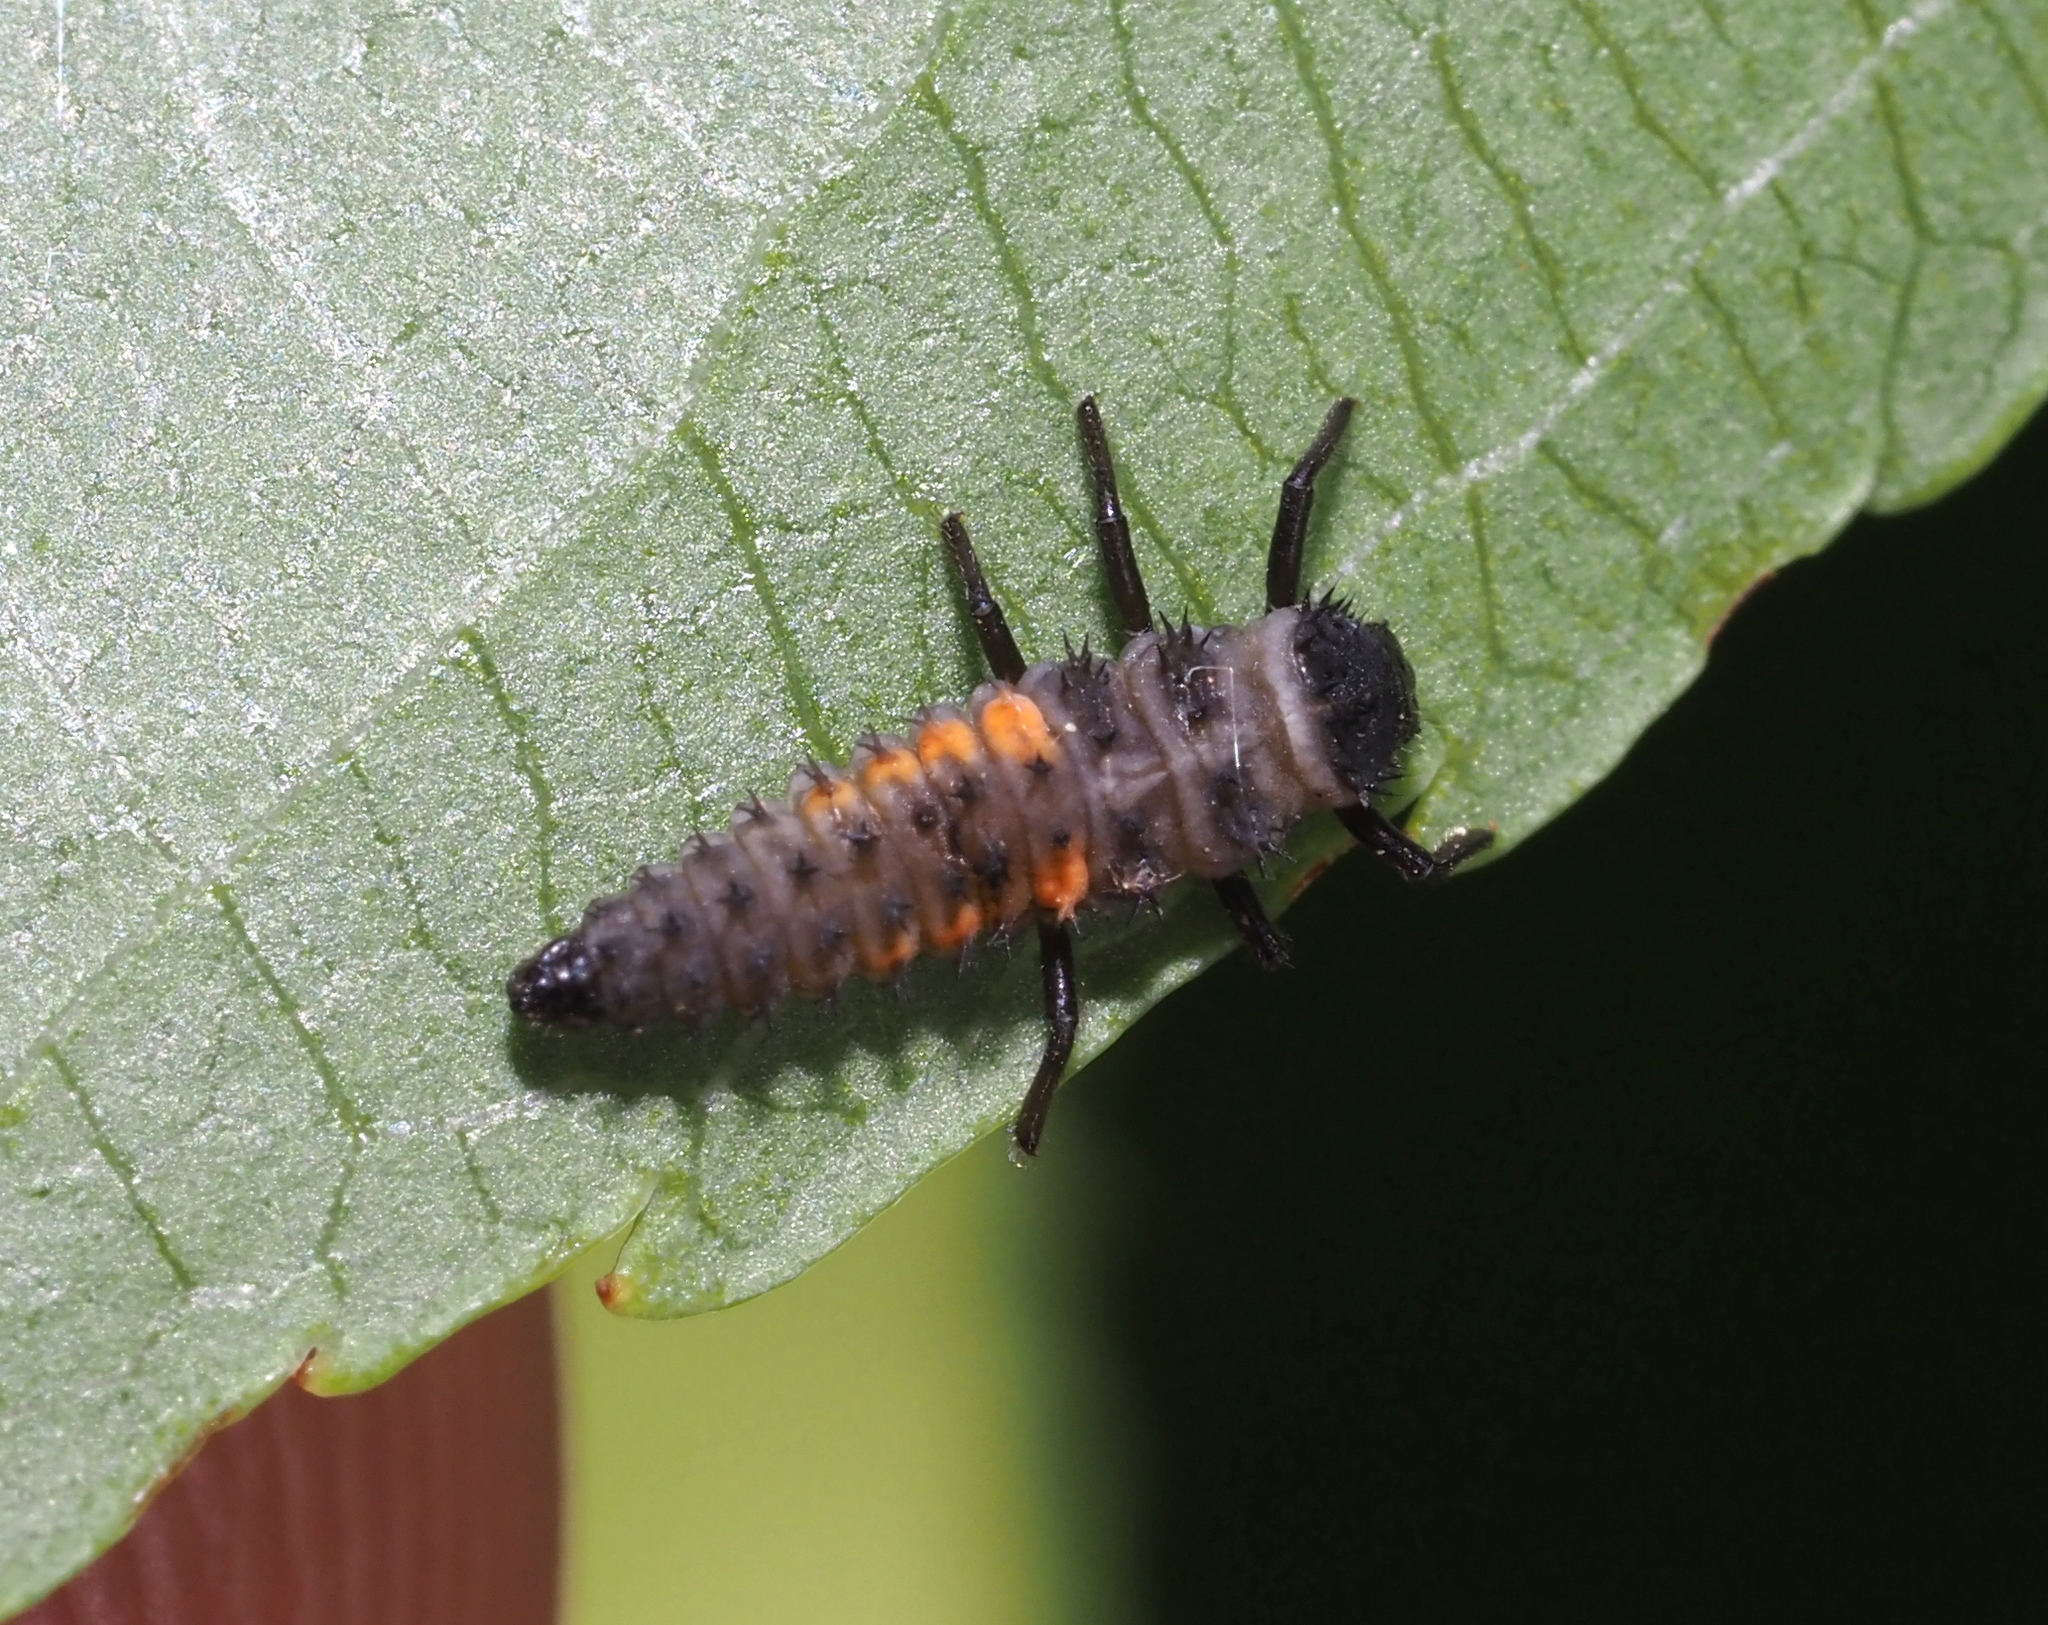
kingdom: Animalia
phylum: Arthropoda
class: Insecta
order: Coleoptera
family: Coccinellidae
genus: Harmonia
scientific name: Harmonia axyridis
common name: Harlequin ladybird
